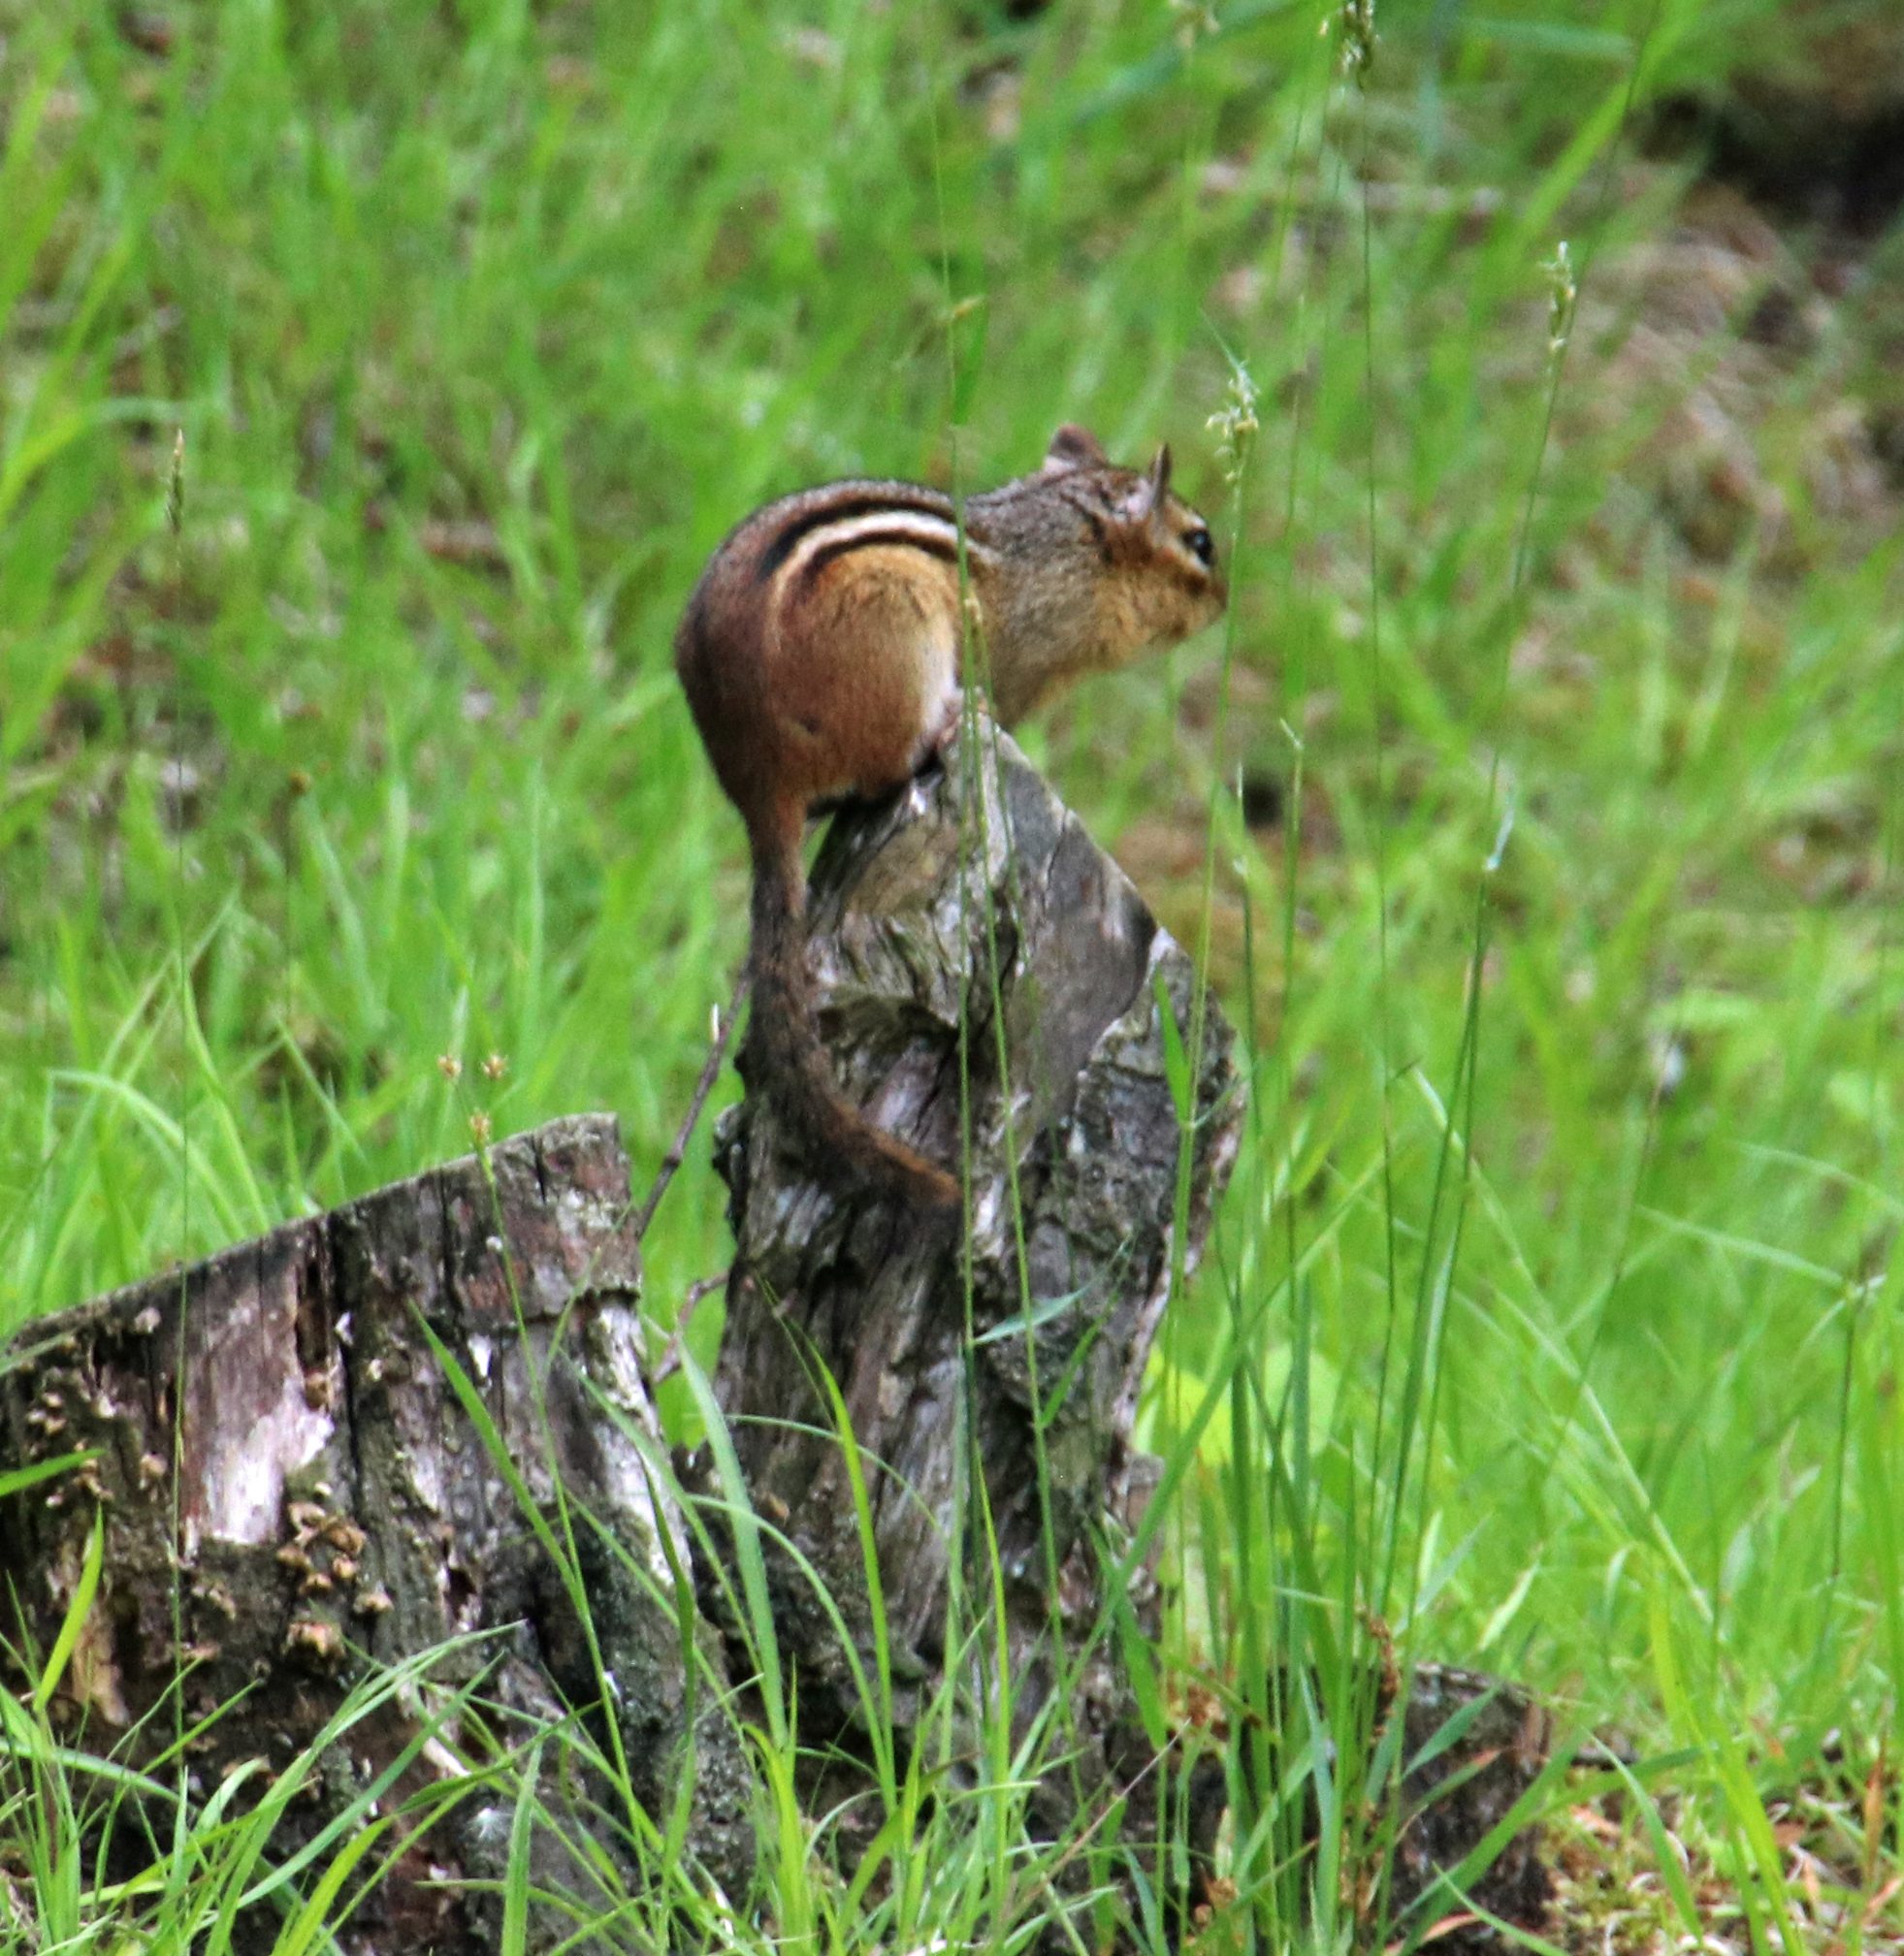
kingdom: Animalia
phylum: Chordata
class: Mammalia
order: Rodentia
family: Sciuridae
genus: Tamias
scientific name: Tamias striatus
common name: Eastern chipmunk
